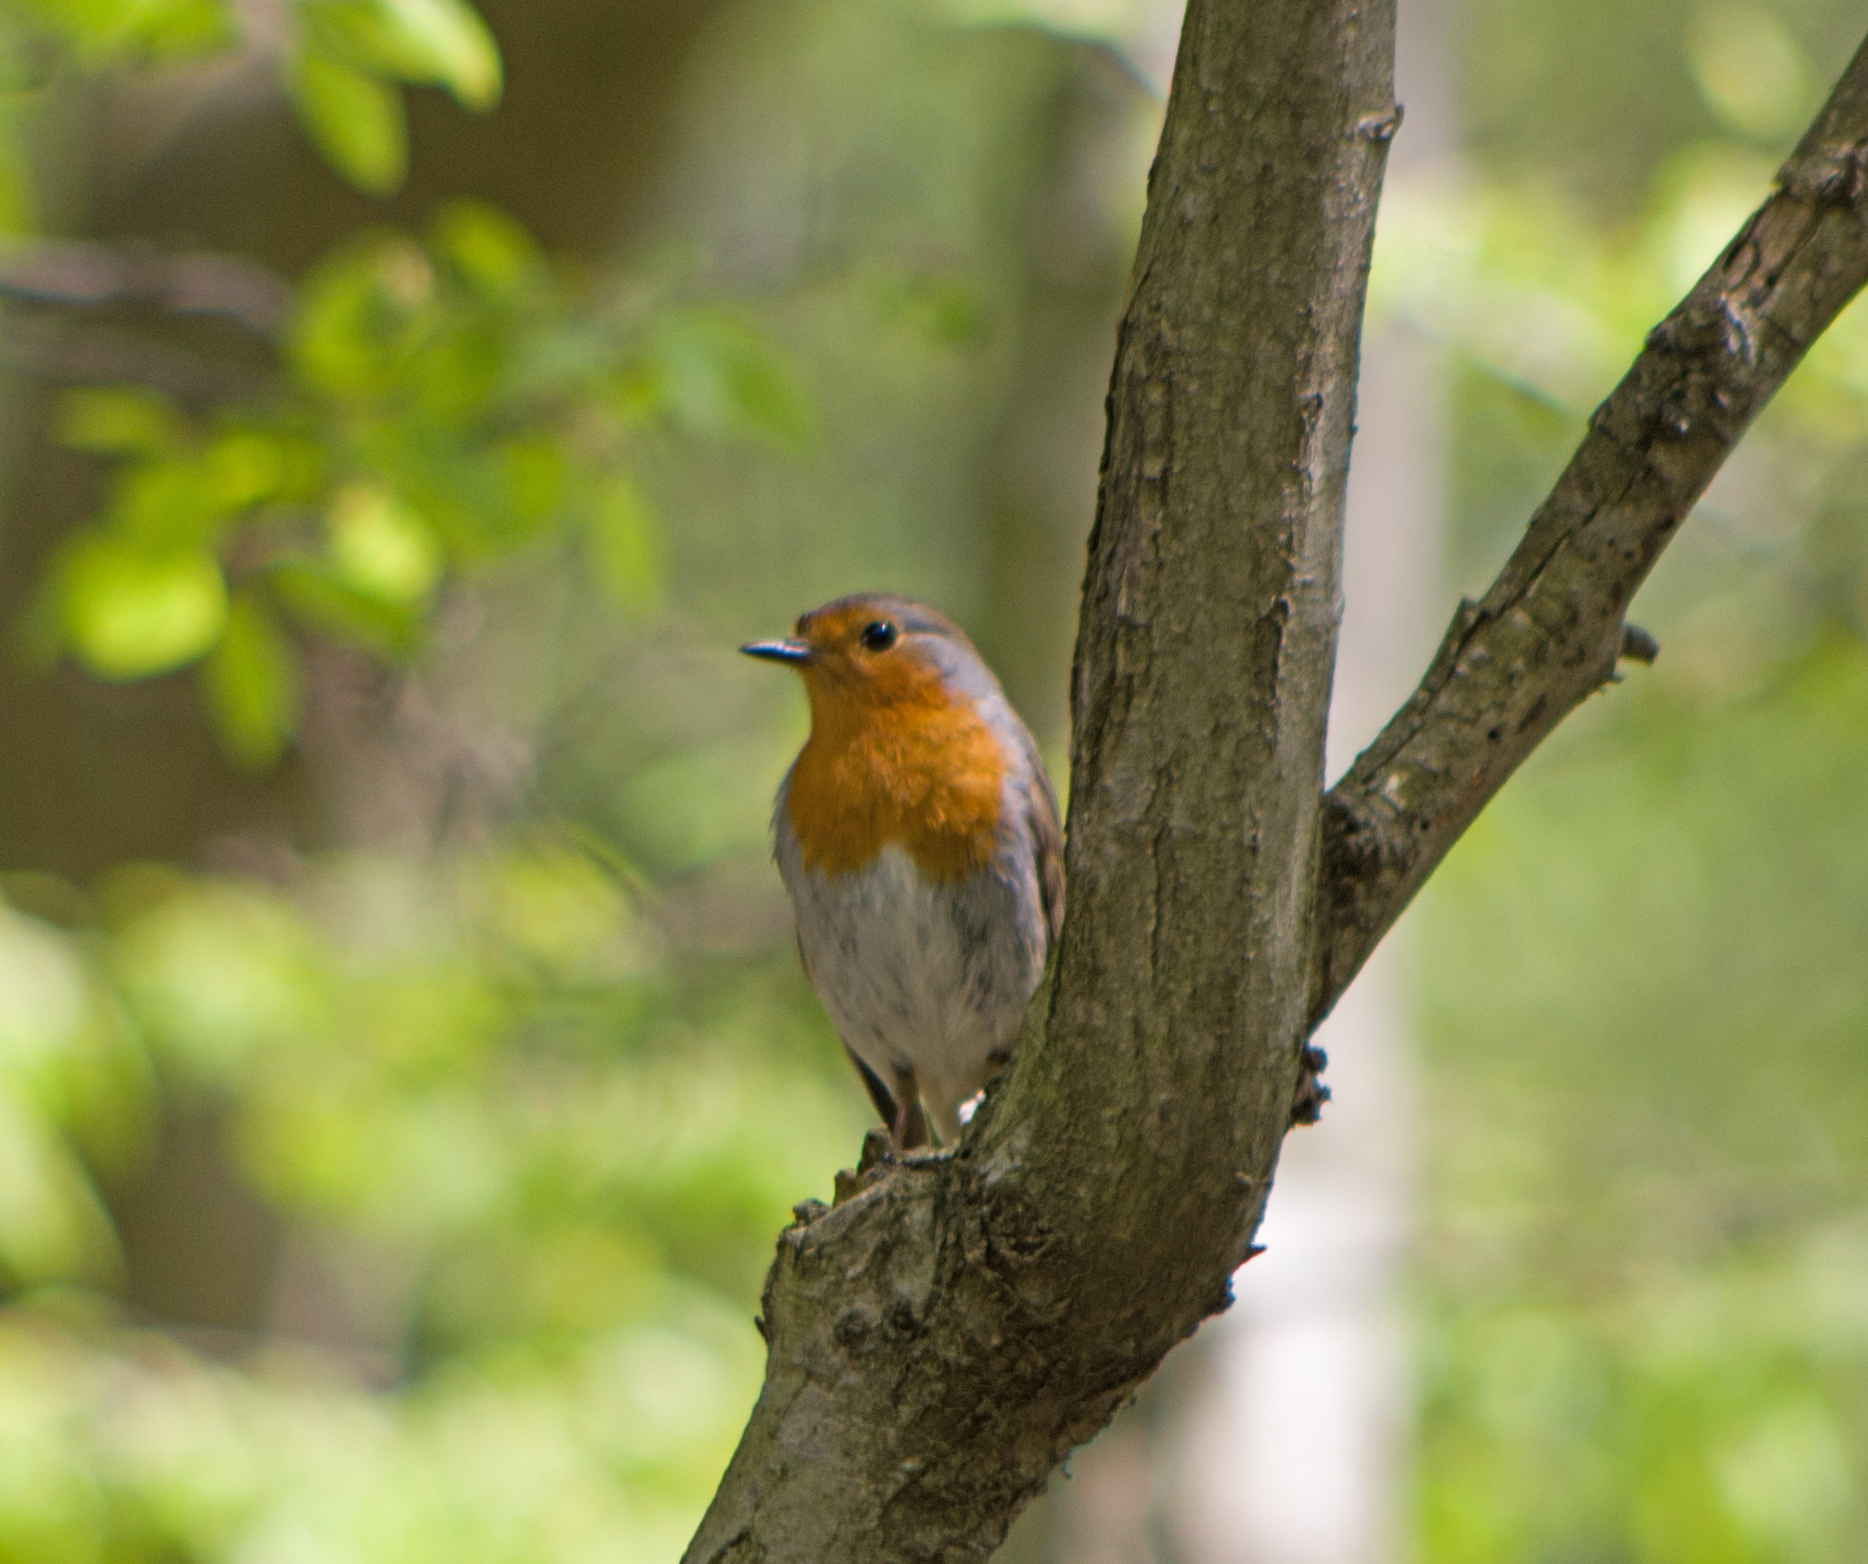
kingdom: Animalia
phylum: Chordata
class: Aves
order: Passeriformes
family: Muscicapidae
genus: Erithacus
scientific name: Erithacus rubecula
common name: European robin
